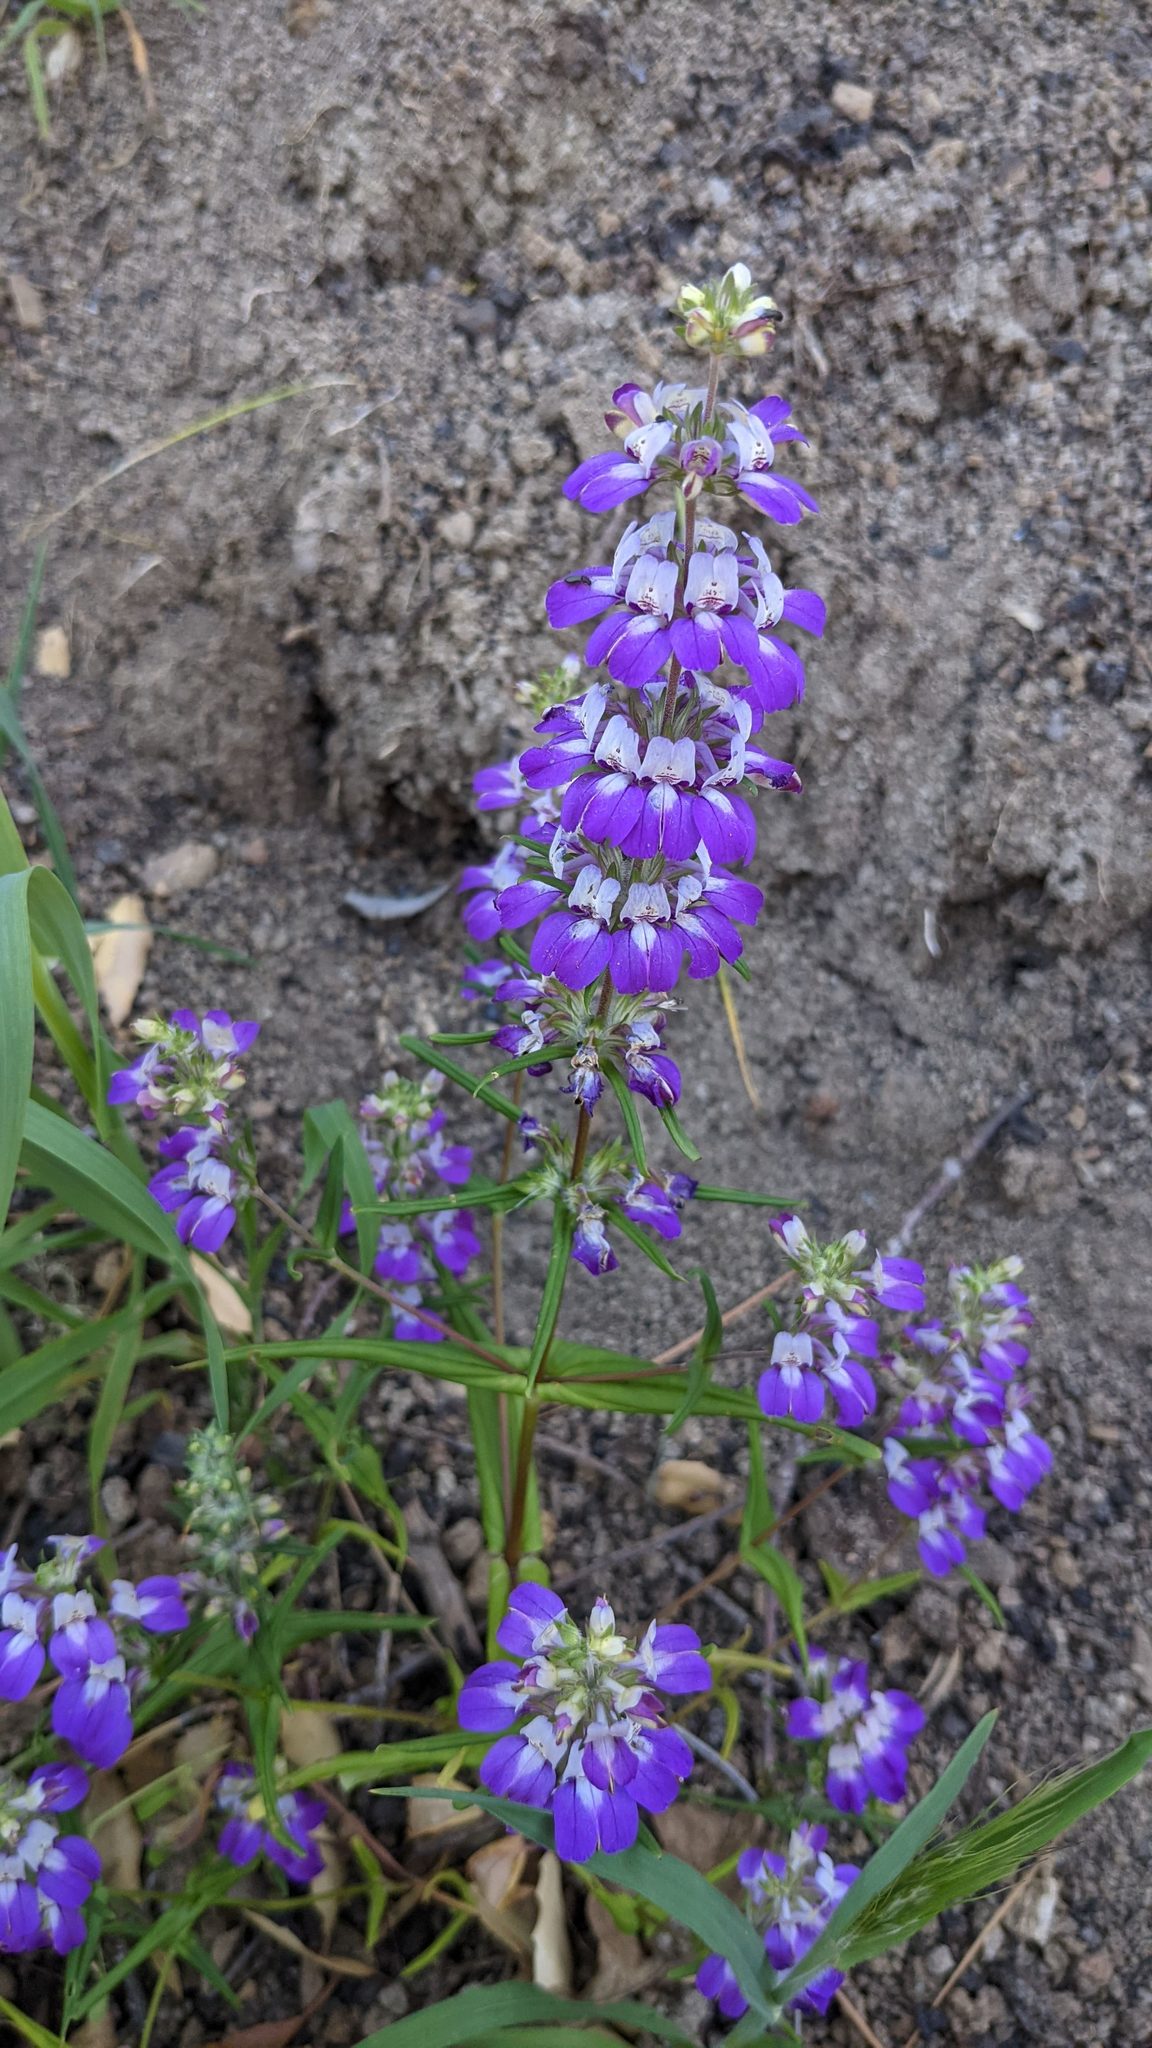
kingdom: Plantae
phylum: Tracheophyta
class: Magnoliopsida
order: Lamiales
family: Plantaginaceae
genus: Collinsia
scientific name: Collinsia heterophylla
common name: Chinese-houses
